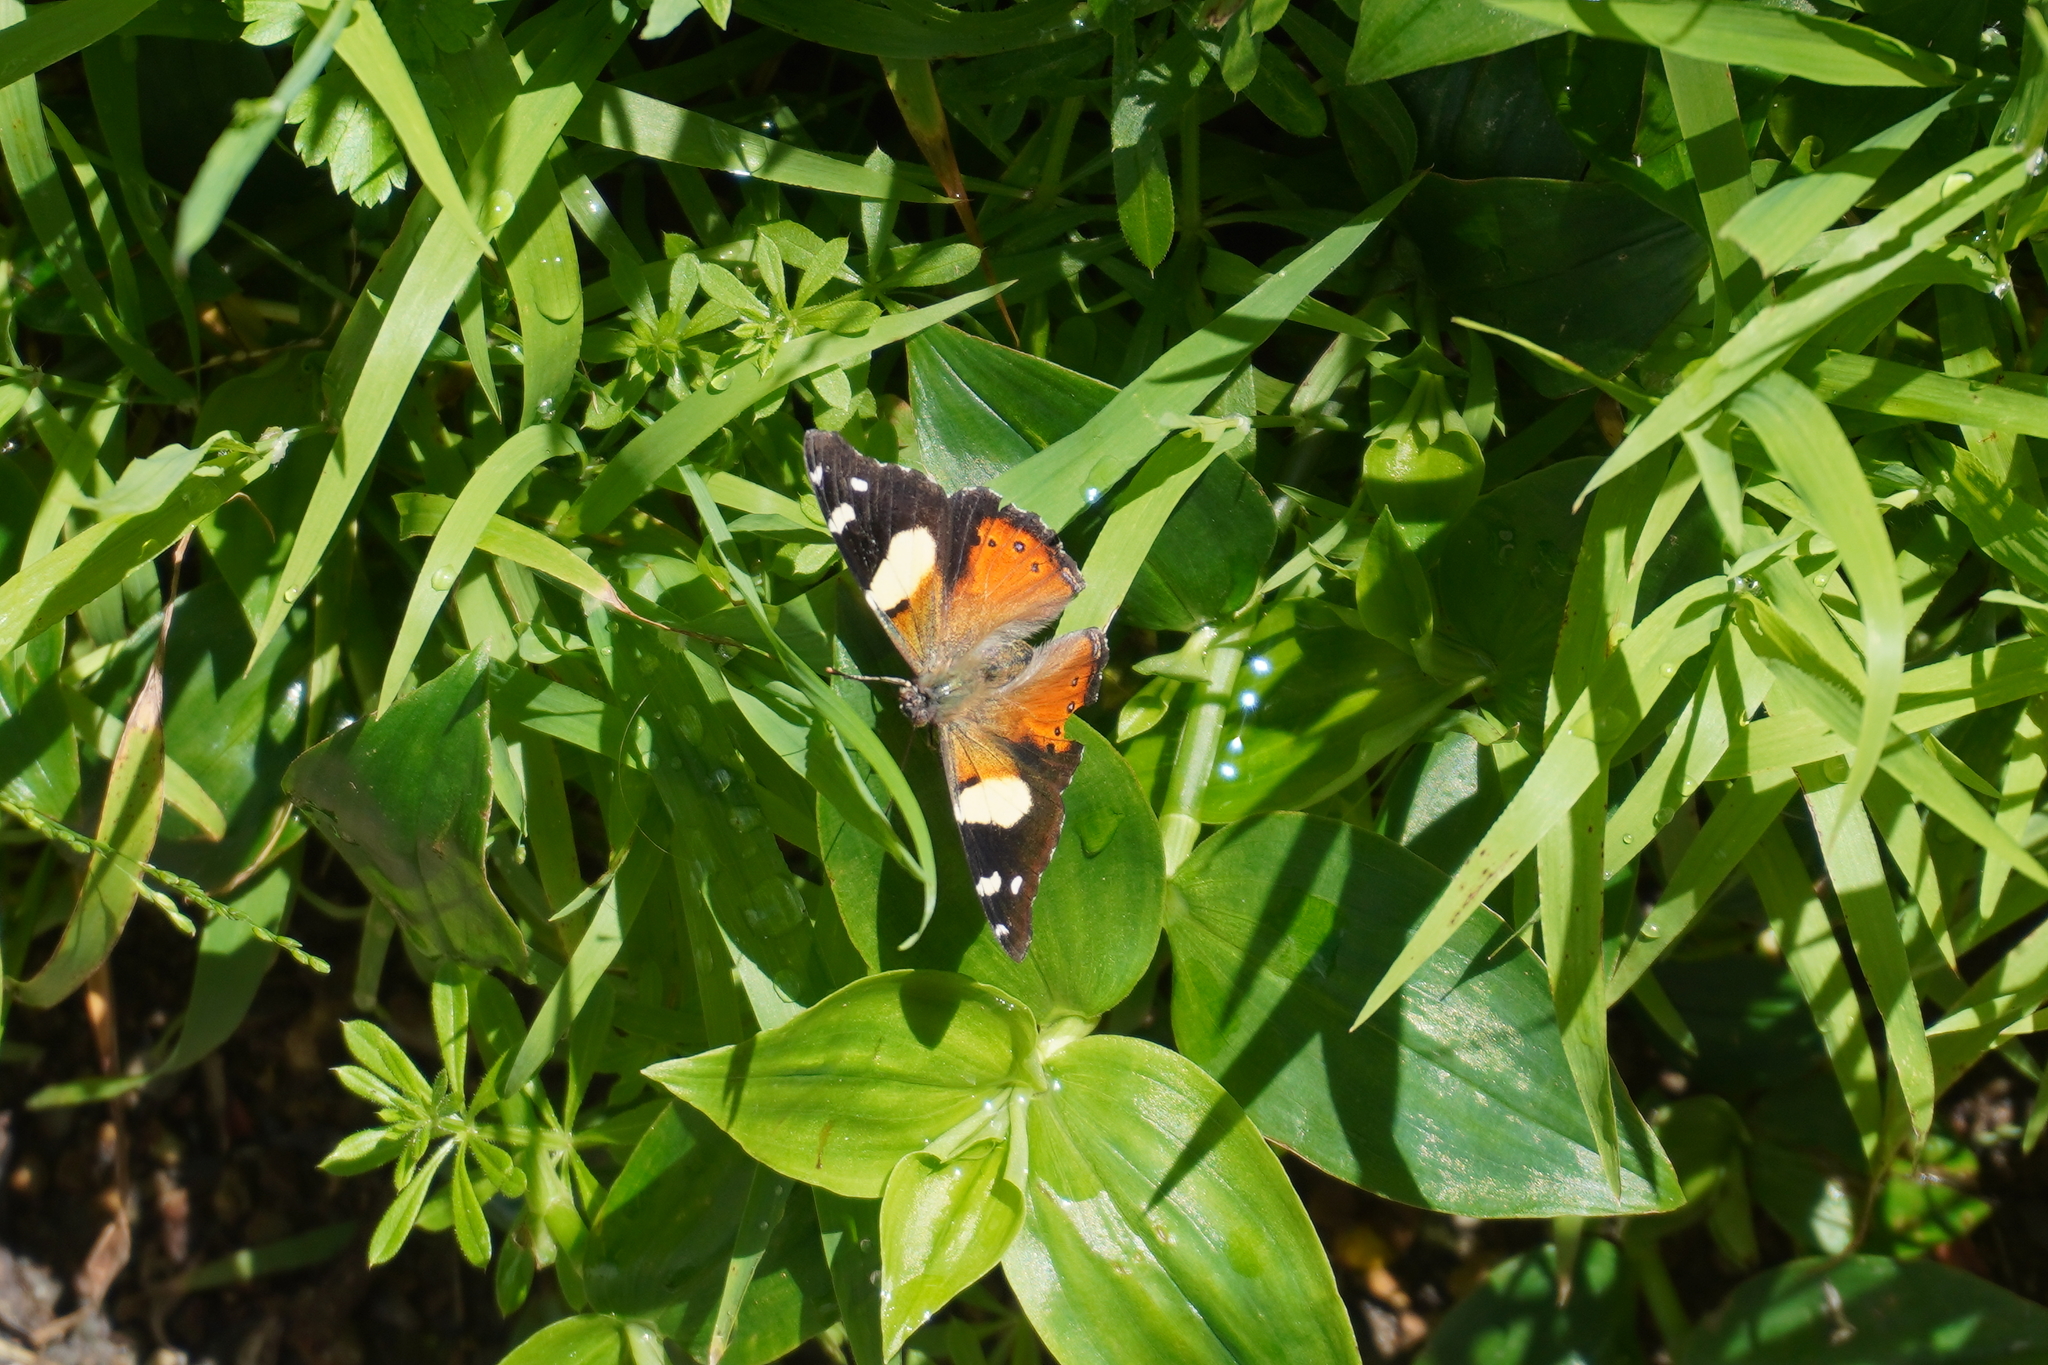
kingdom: Animalia
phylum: Arthropoda
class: Insecta
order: Lepidoptera
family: Nymphalidae
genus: Vanessa
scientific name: Vanessa itea
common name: Yellow admiral
